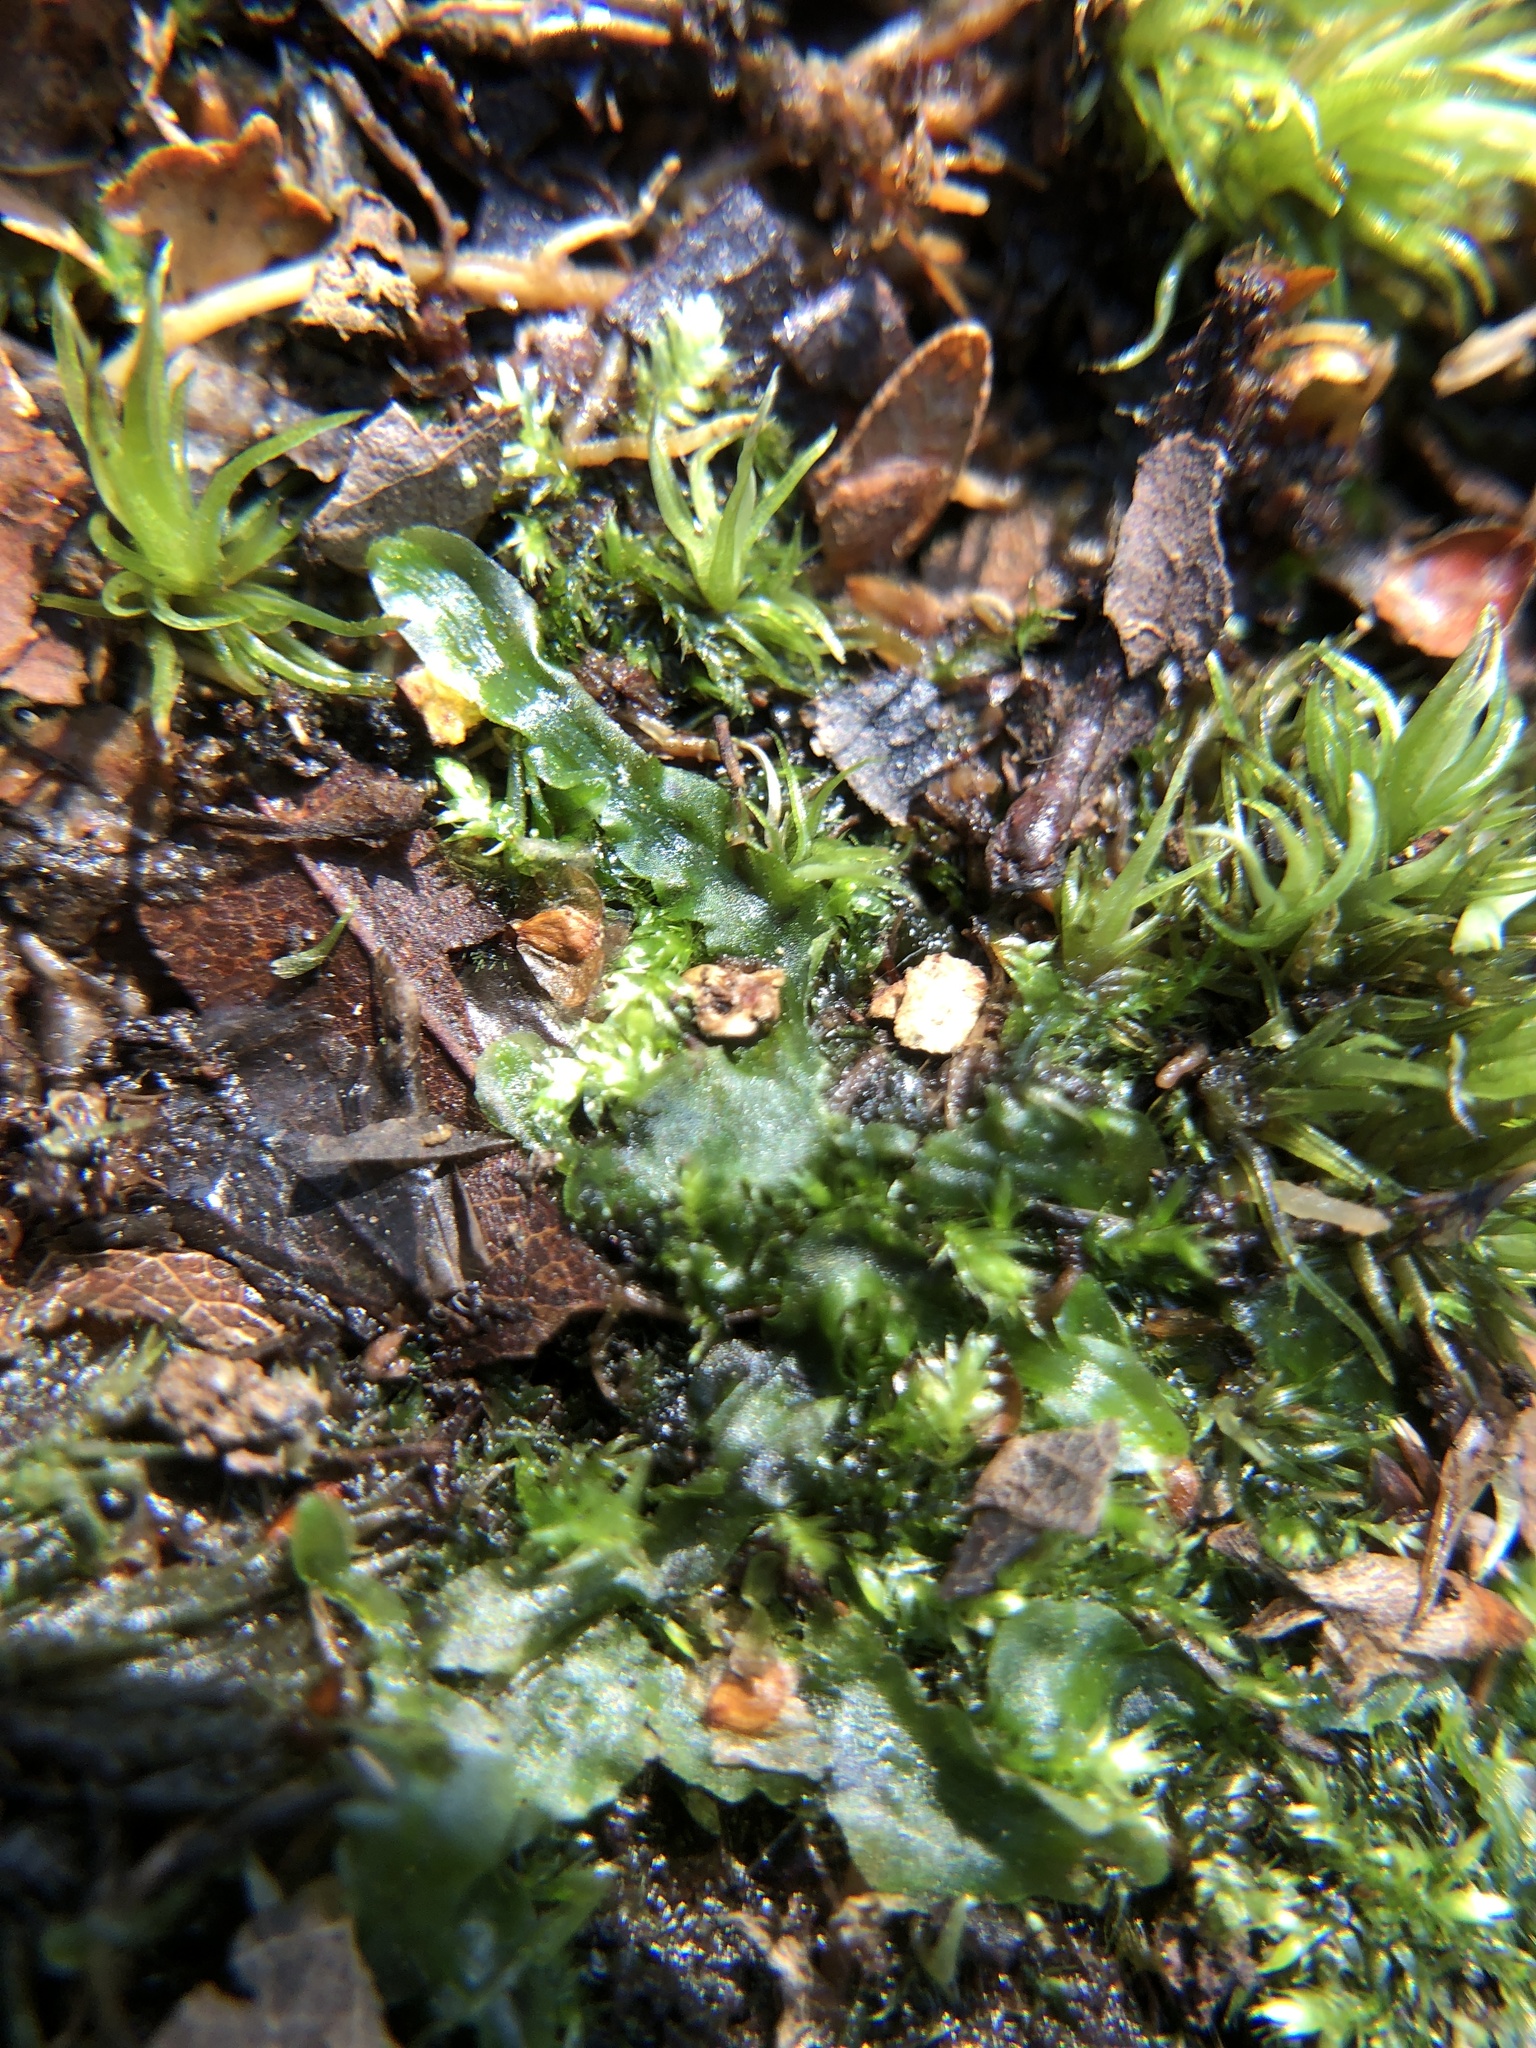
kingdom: Plantae
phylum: Marchantiophyta
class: Jungermanniopsida
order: Pallaviciniales
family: Pallaviciniaceae
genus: Pallavicinia
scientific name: Pallavicinia lyellii
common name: Veilwort
